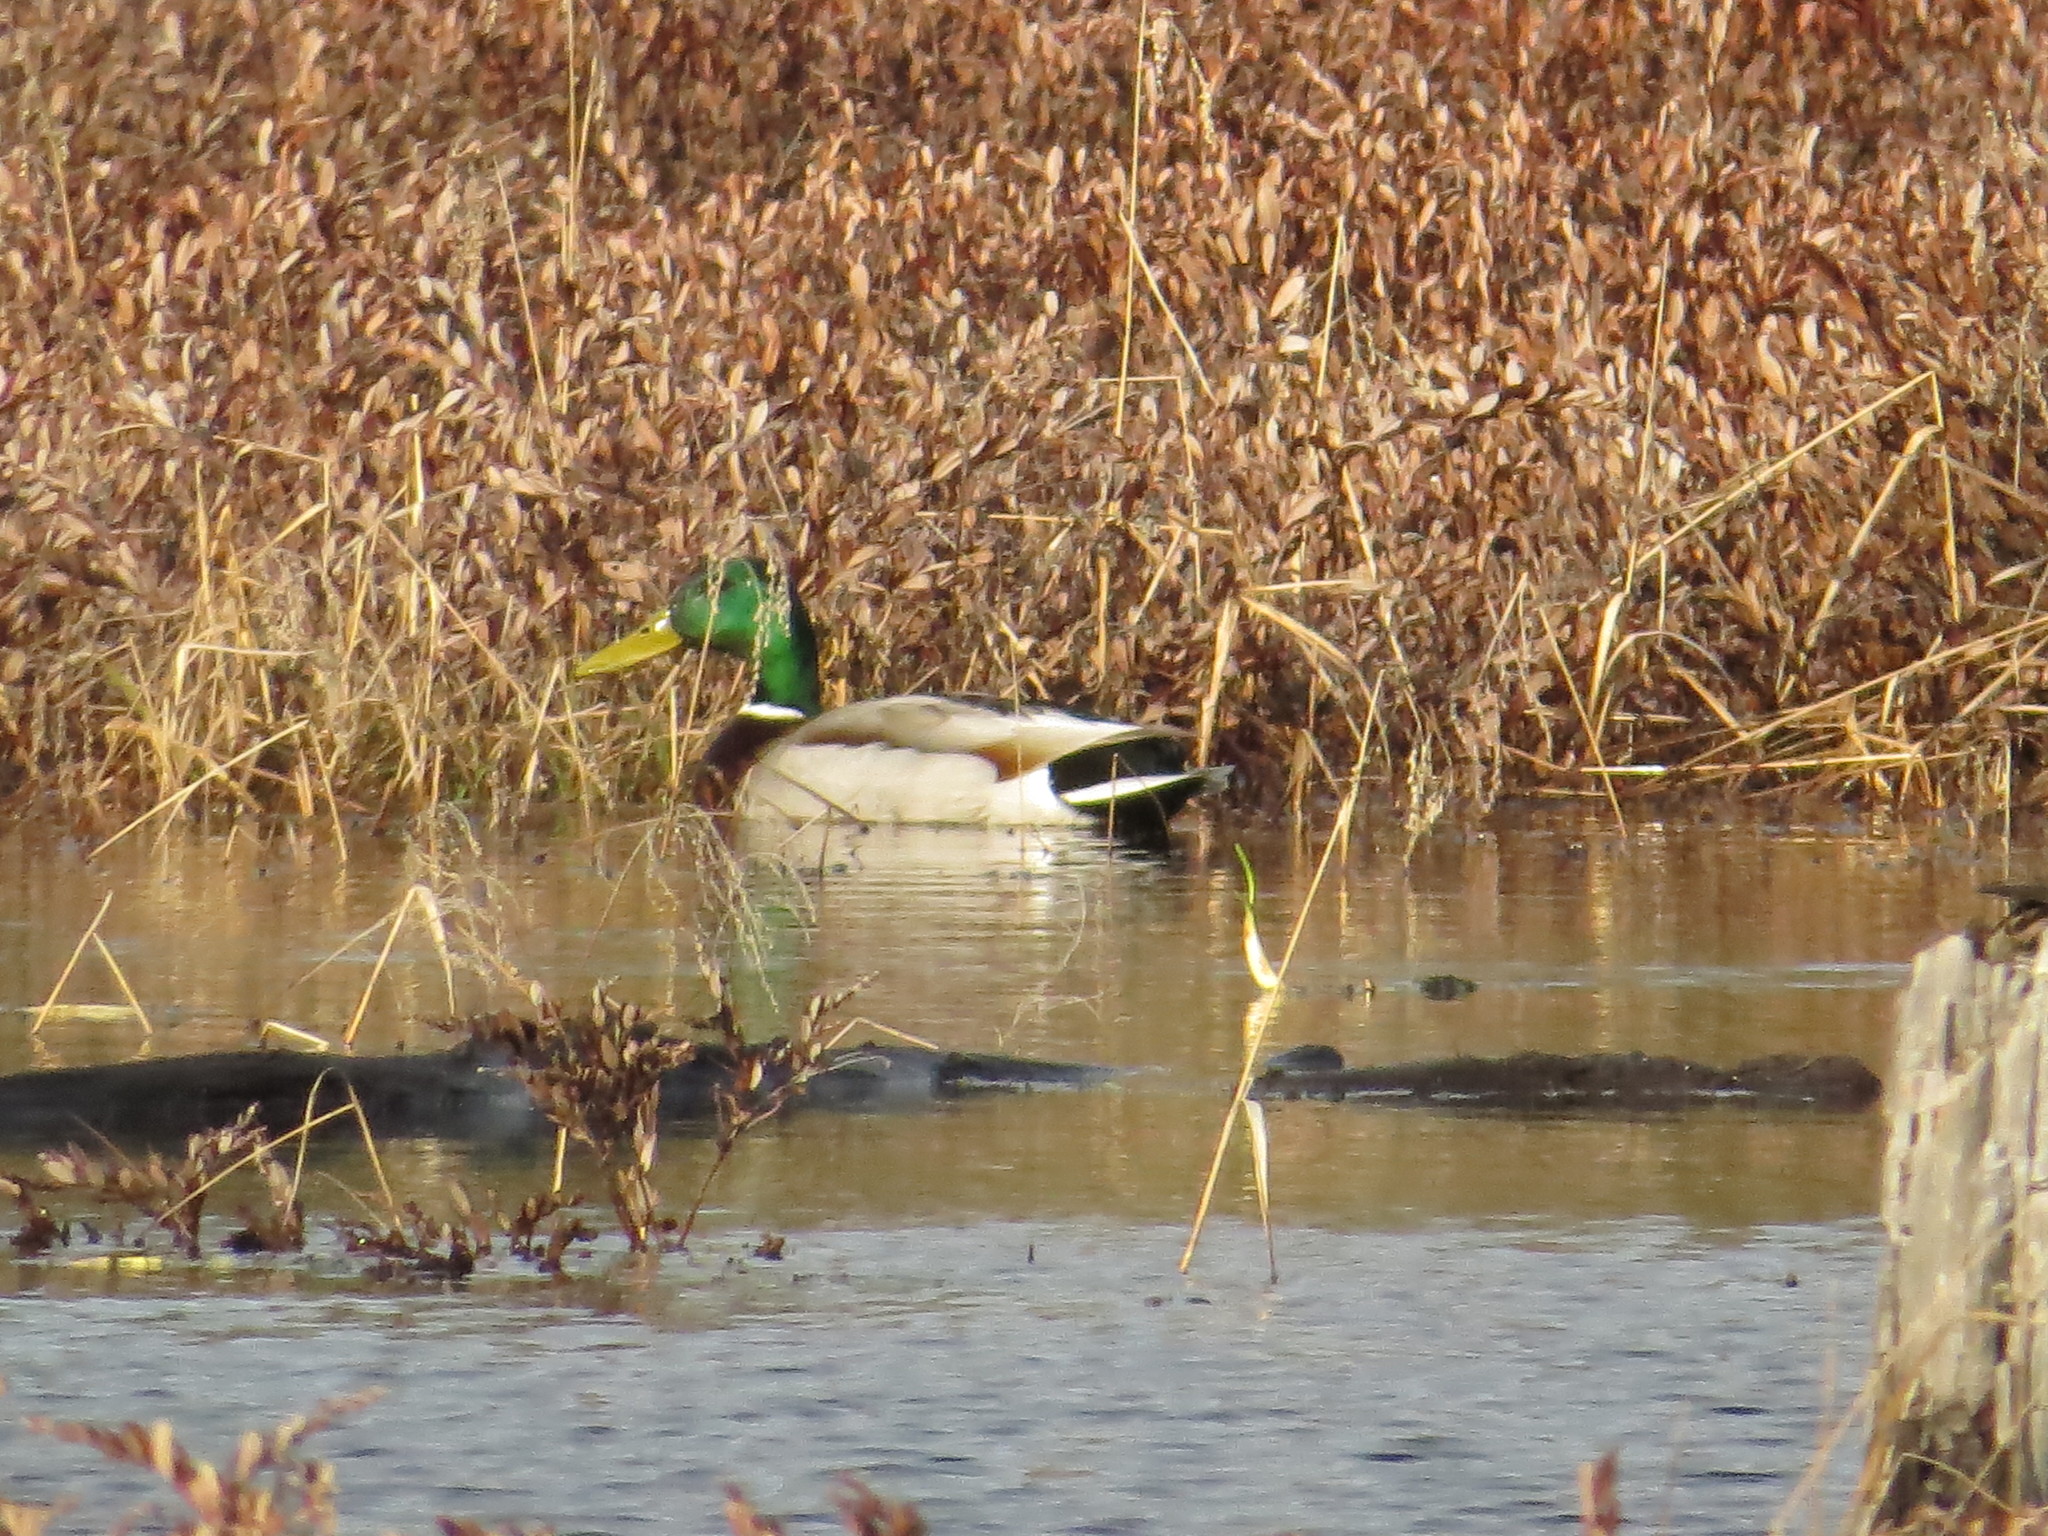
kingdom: Animalia
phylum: Chordata
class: Aves
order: Anseriformes
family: Anatidae
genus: Anas
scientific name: Anas platyrhynchos
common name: Mallard
